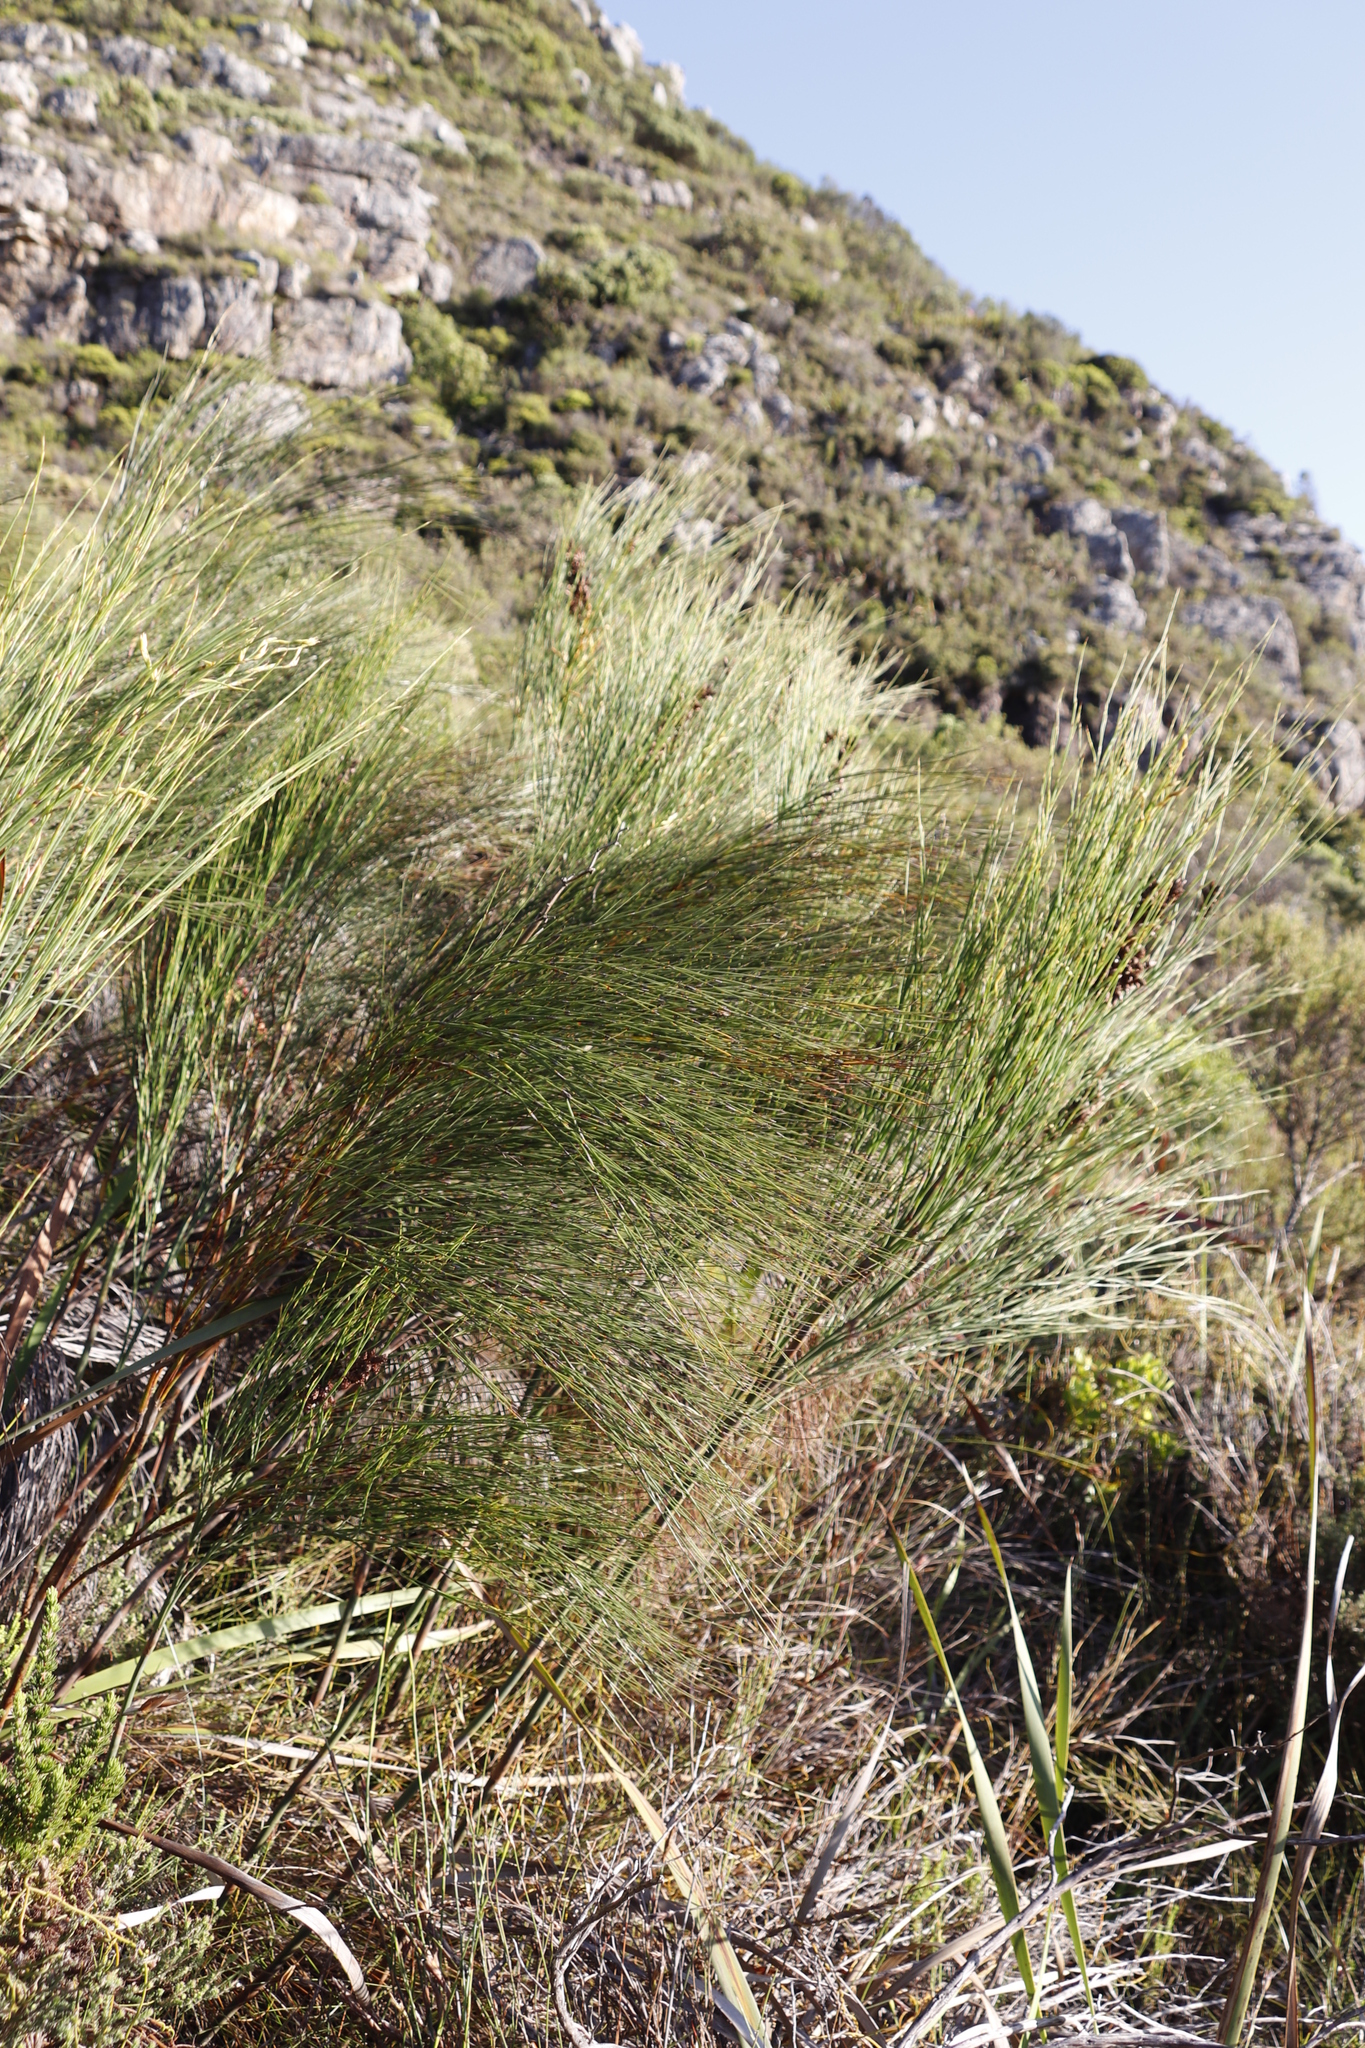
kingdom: Plantae
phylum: Tracheophyta
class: Liliopsida
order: Poales
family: Restionaceae
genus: Cannomois
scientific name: Cannomois virgata
